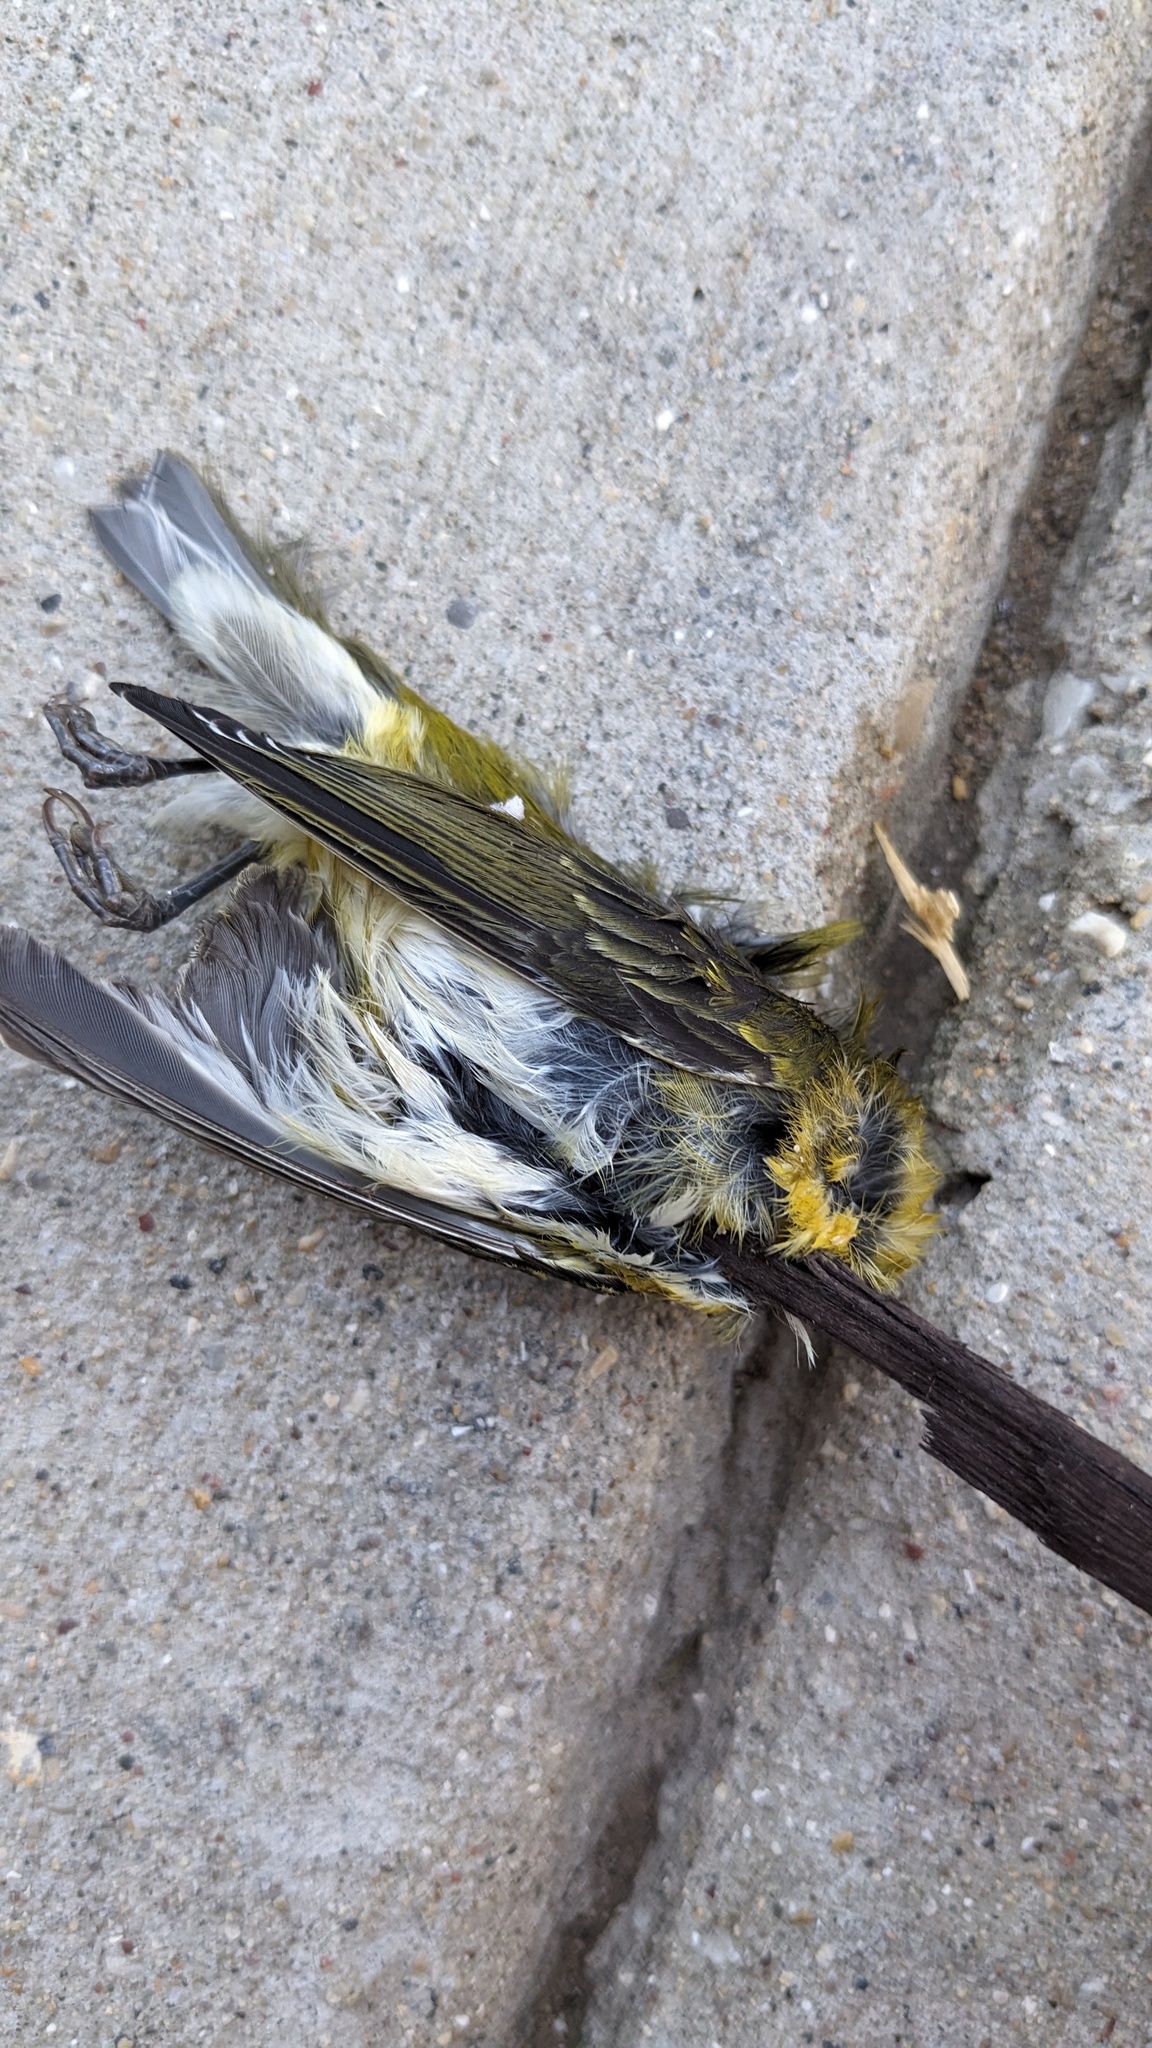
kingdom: Animalia
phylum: Chordata
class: Aves
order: Passeriformes
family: Parulidae
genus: Leiothlypis
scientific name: Leiothlypis peregrina
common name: Tennessee warbler
